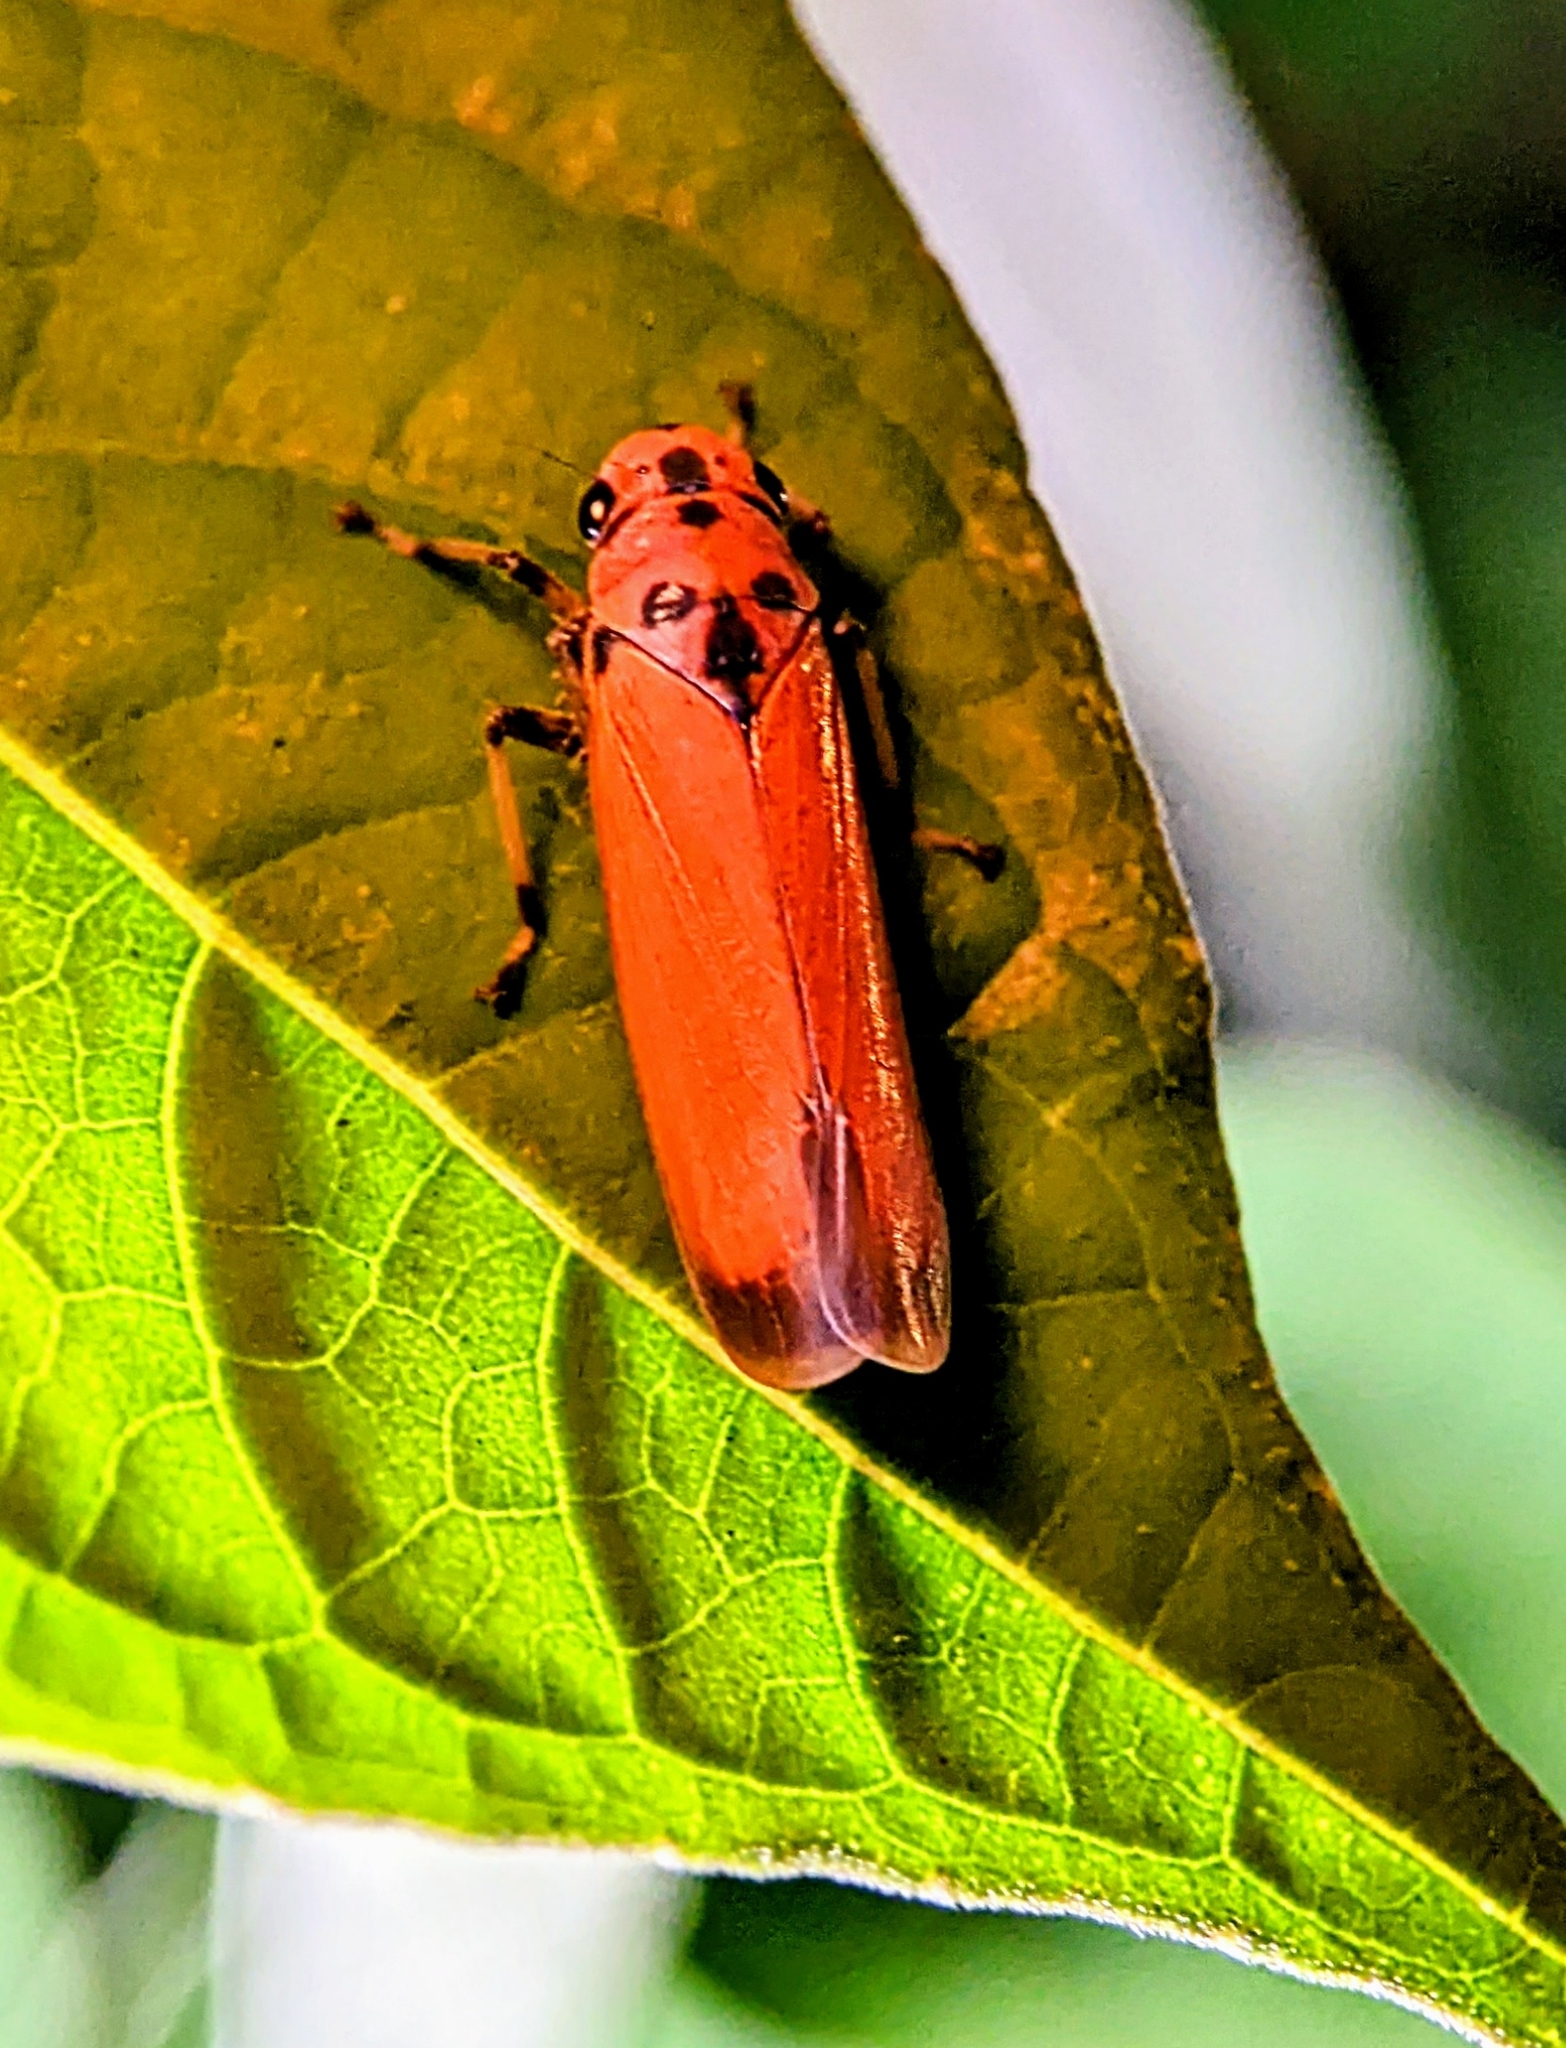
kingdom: Animalia
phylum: Arthropoda
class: Insecta
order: Hemiptera
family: Cicadellidae
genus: Bothrogonia
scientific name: Bothrogonia addita
